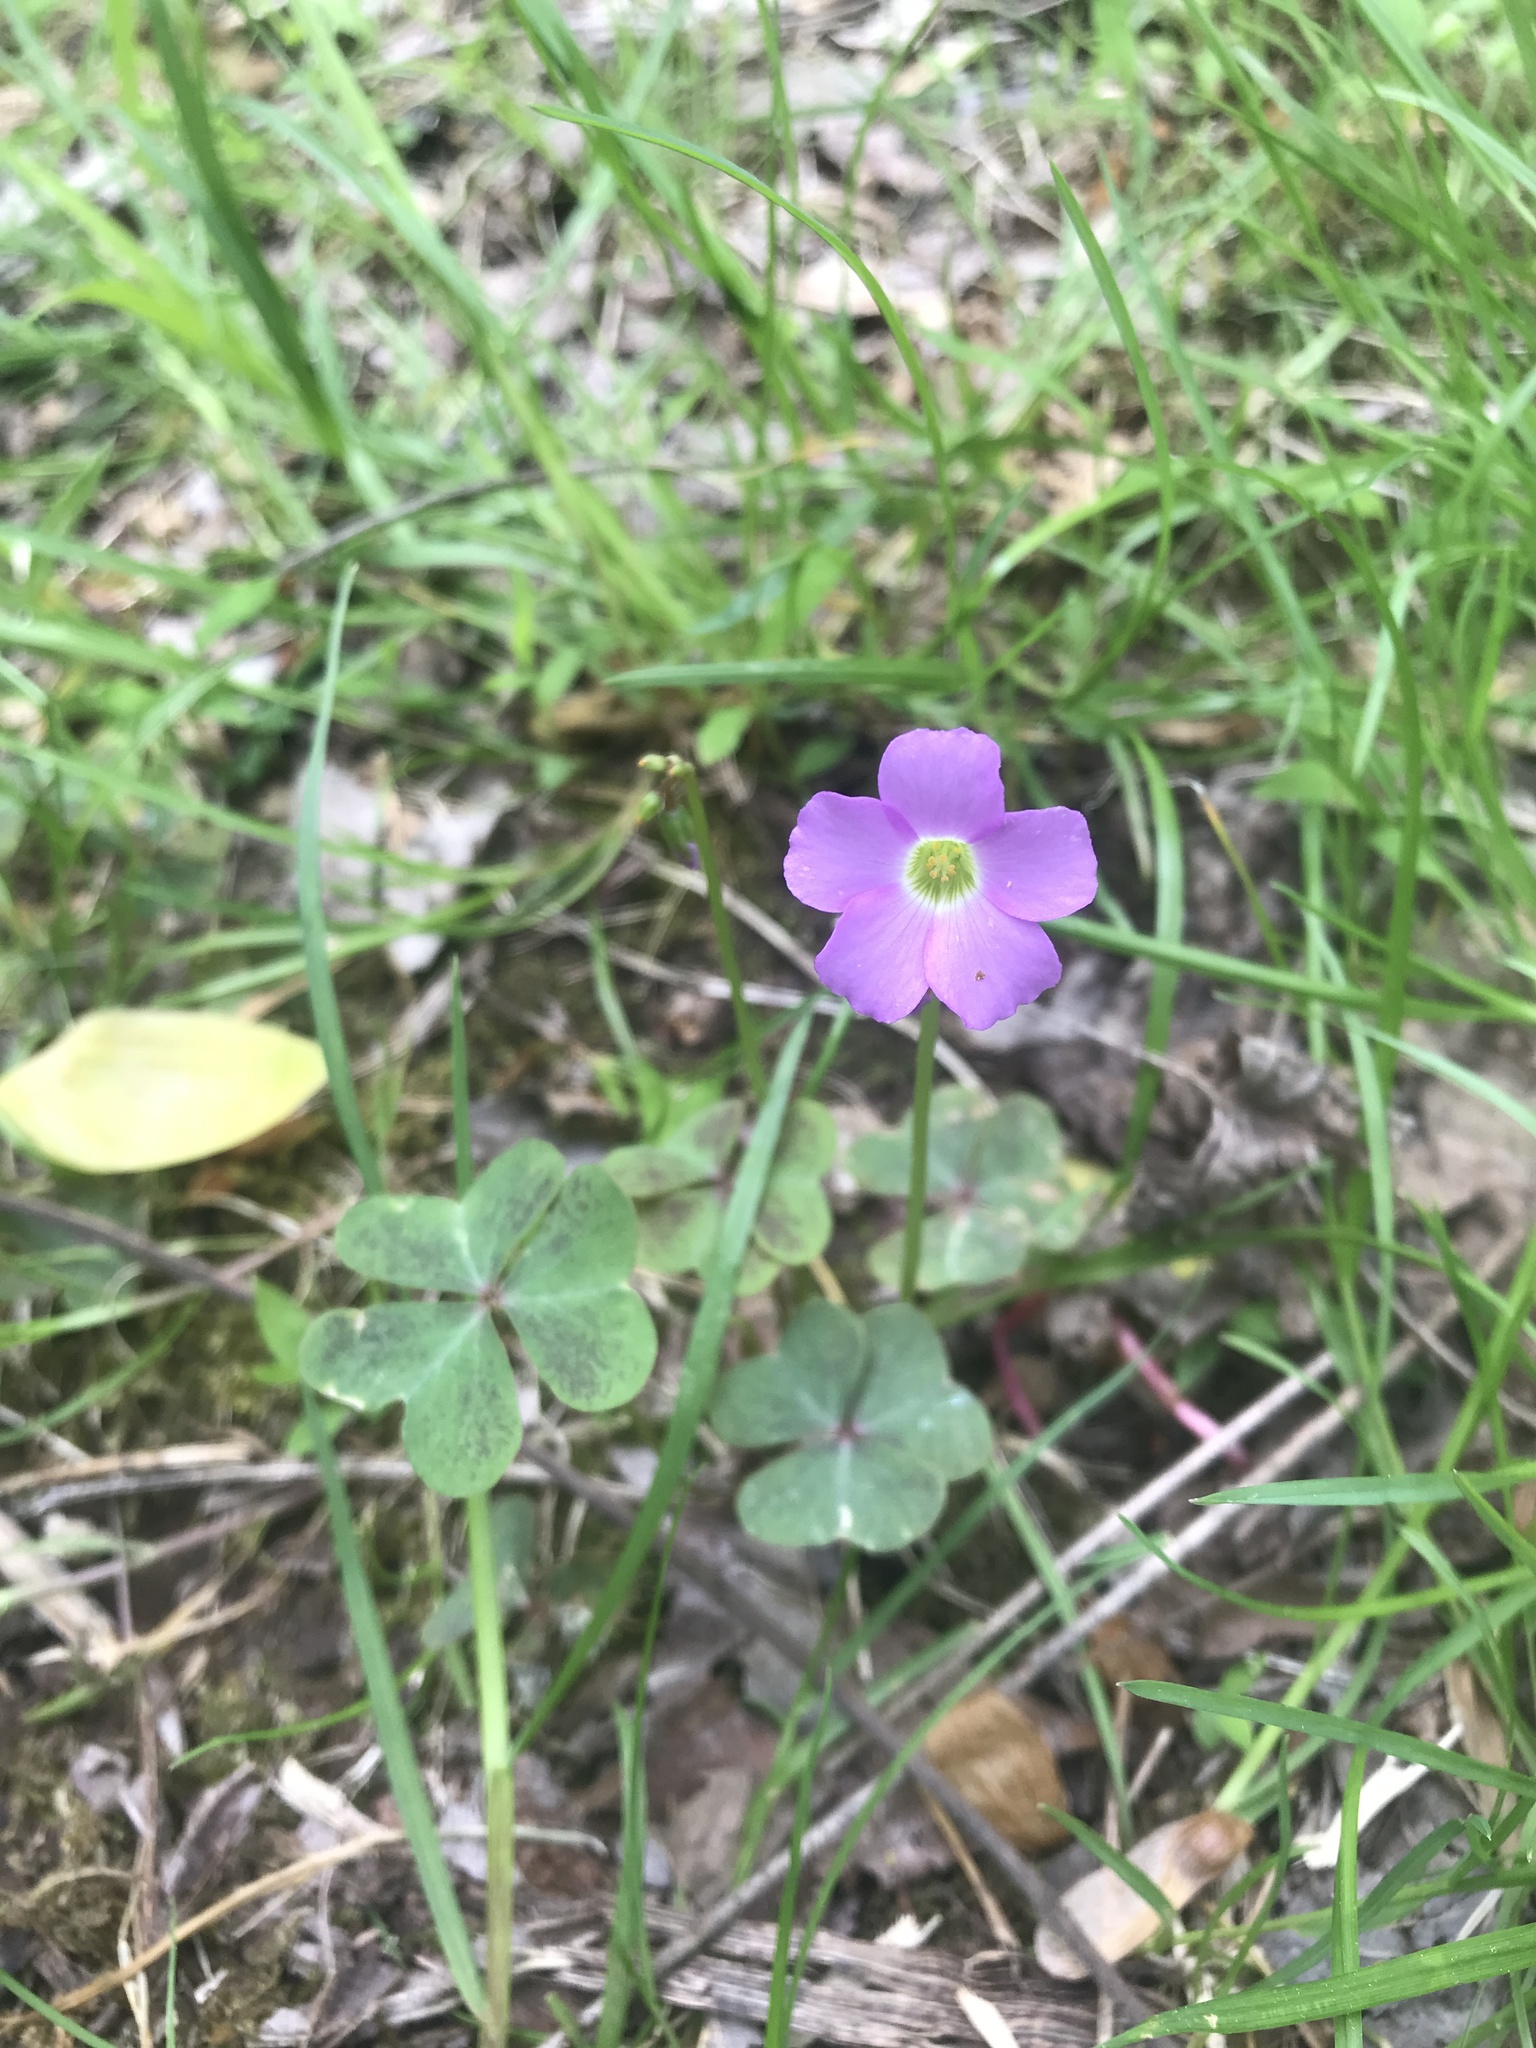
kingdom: Plantae
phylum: Tracheophyta
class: Magnoliopsida
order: Oxalidales
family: Oxalidaceae
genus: Oxalis
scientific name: Oxalis violacea
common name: Violet wood-sorrel
